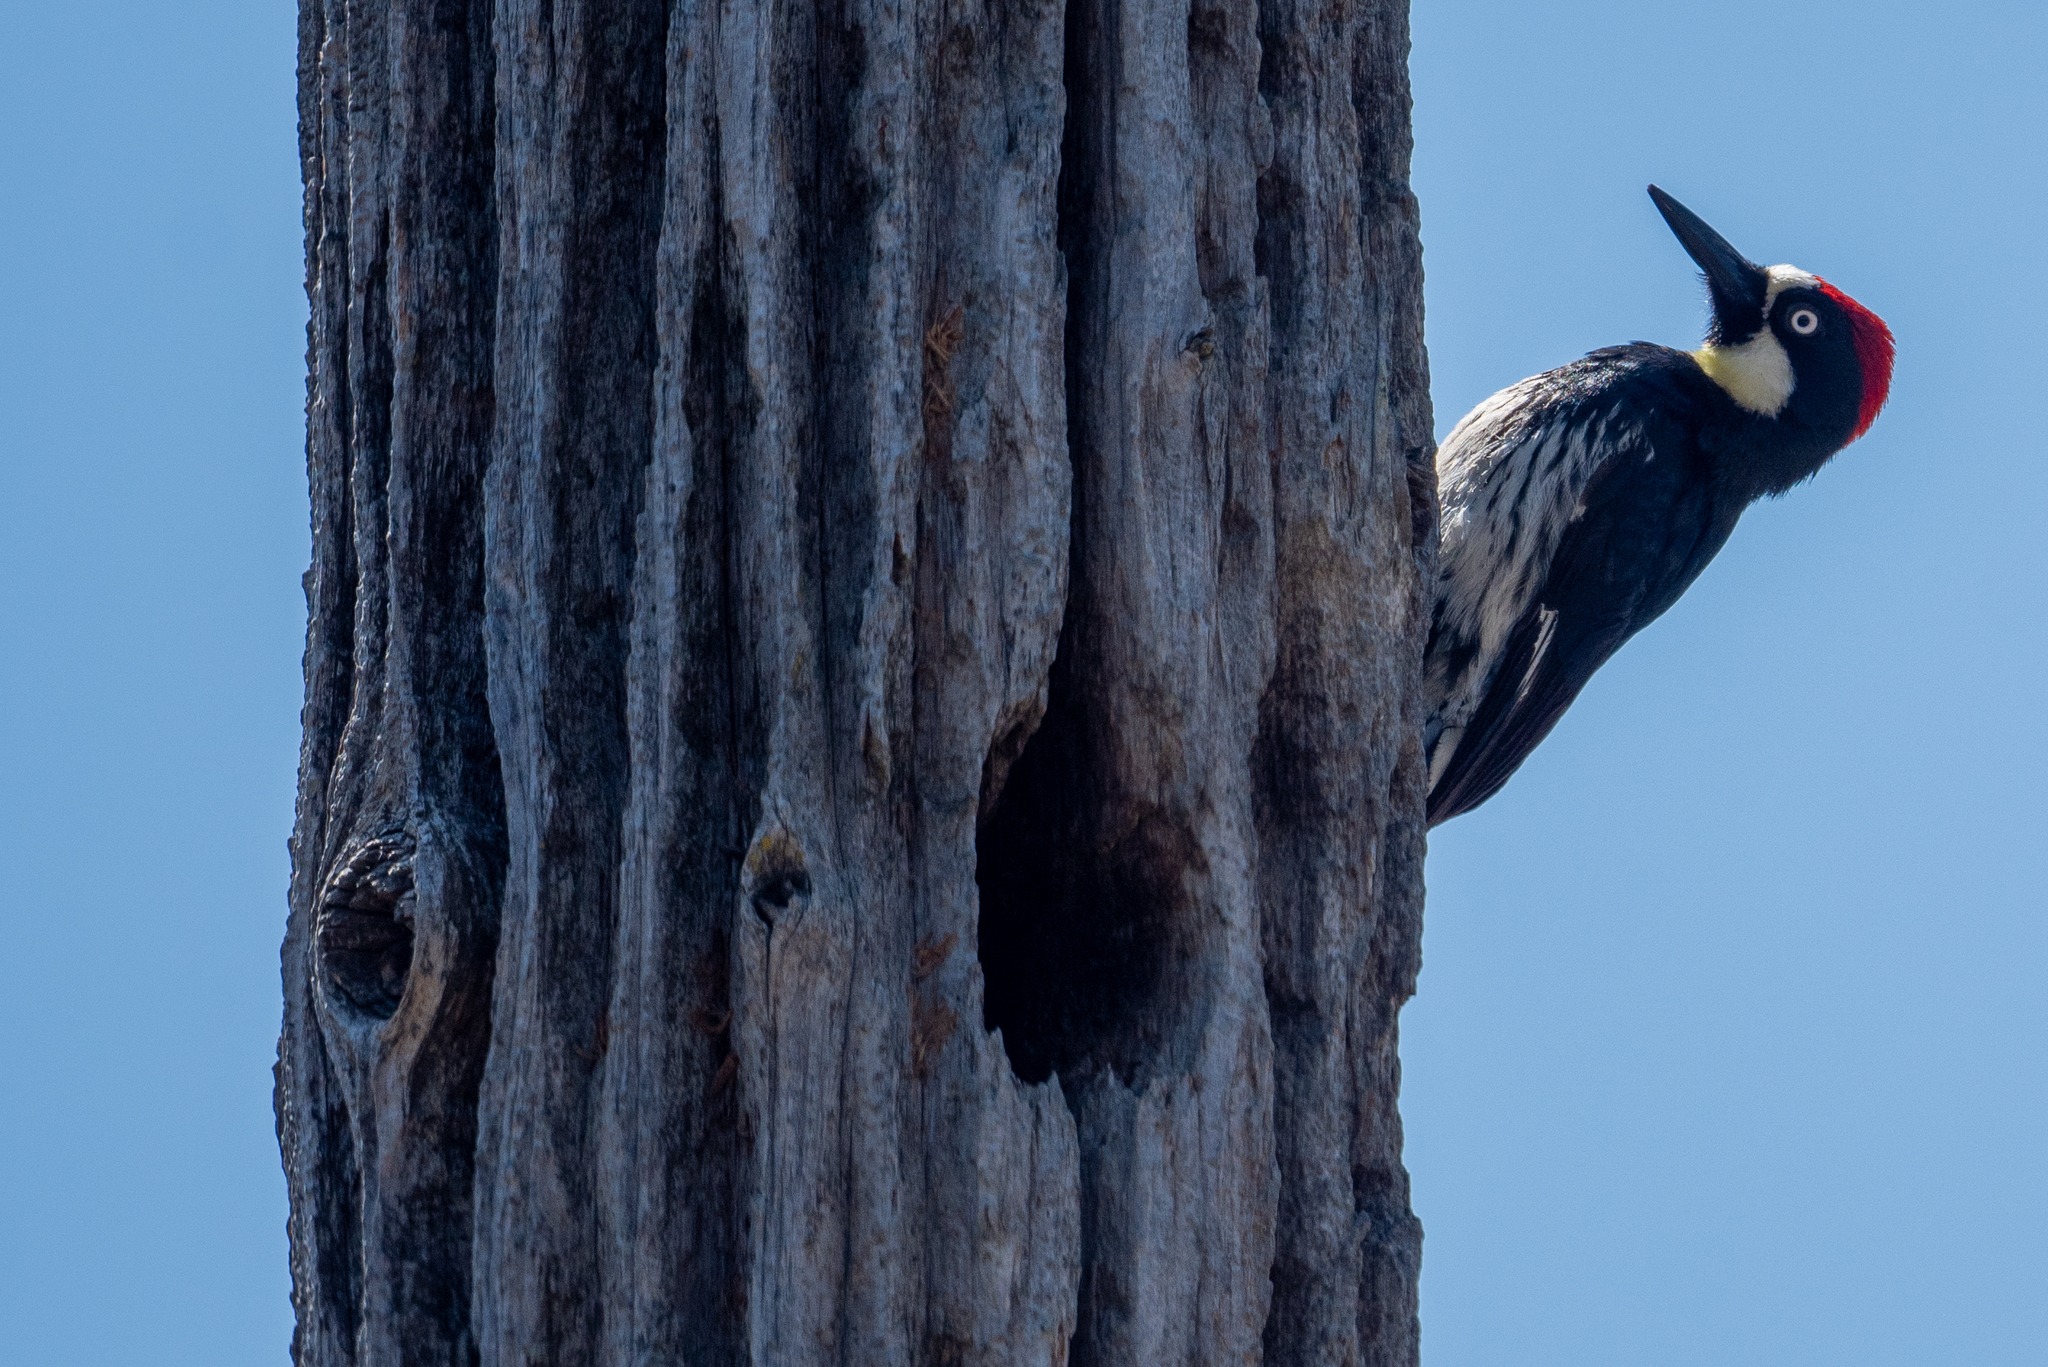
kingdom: Animalia
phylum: Chordata
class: Aves
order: Piciformes
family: Picidae
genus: Melanerpes
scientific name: Melanerpes formicivorus
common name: Acorn woodpecker
